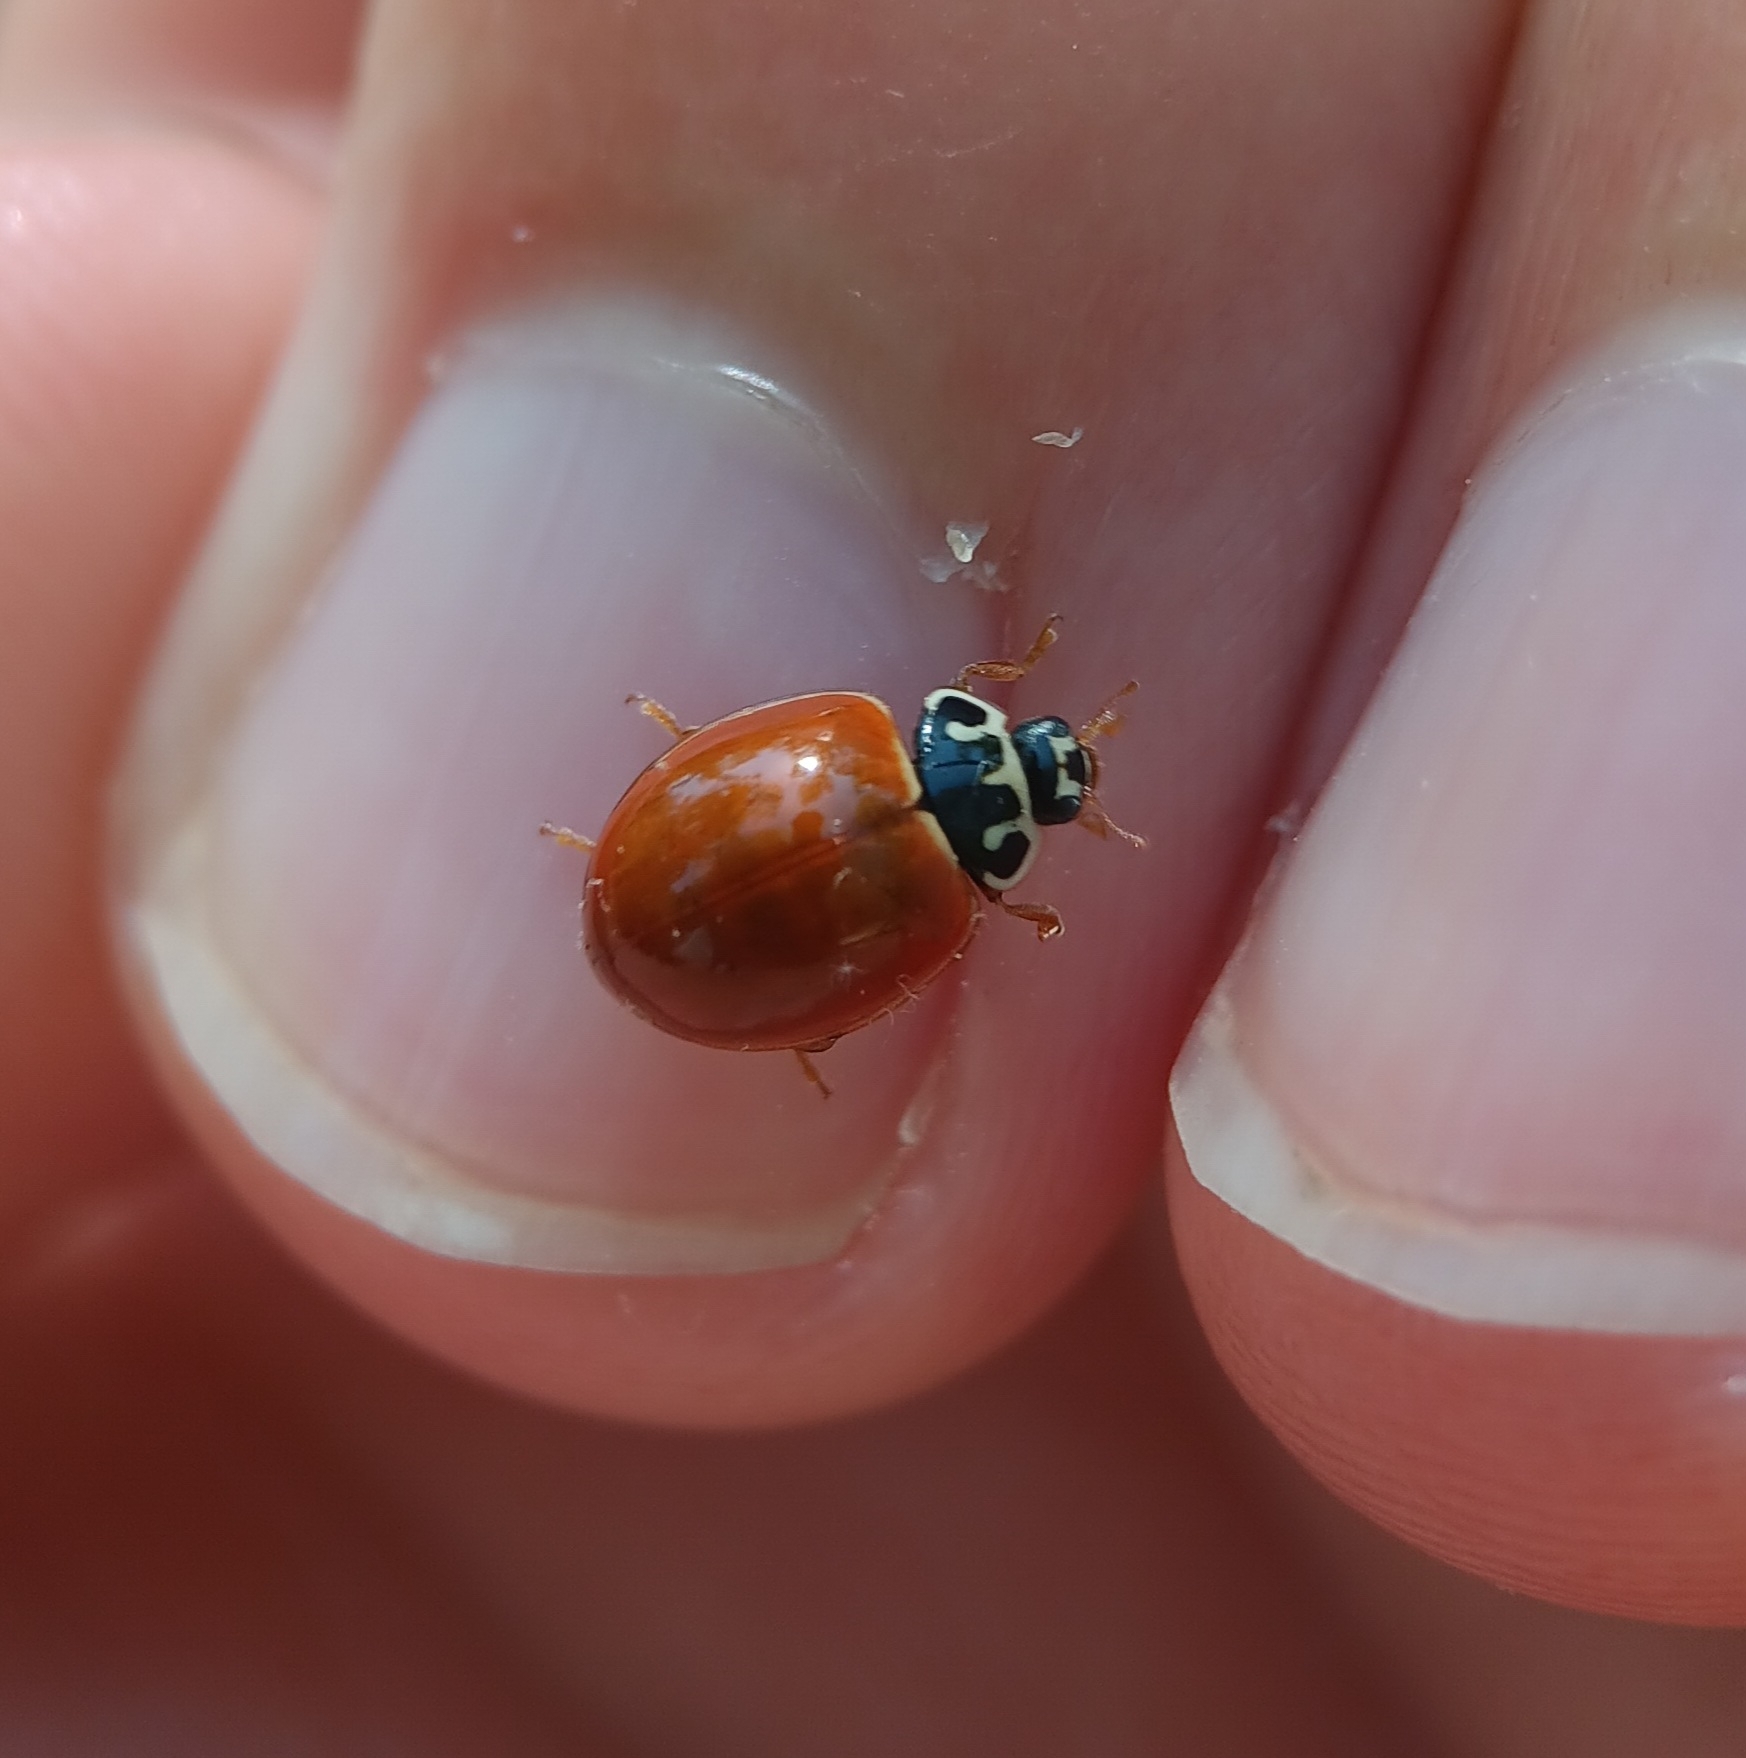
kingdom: Animalia
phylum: Arthropoda
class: Insecta
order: Coleoptera
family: Coccinellidae
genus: Cycloneda
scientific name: Cycloneda munda
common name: Polished lady beetle
